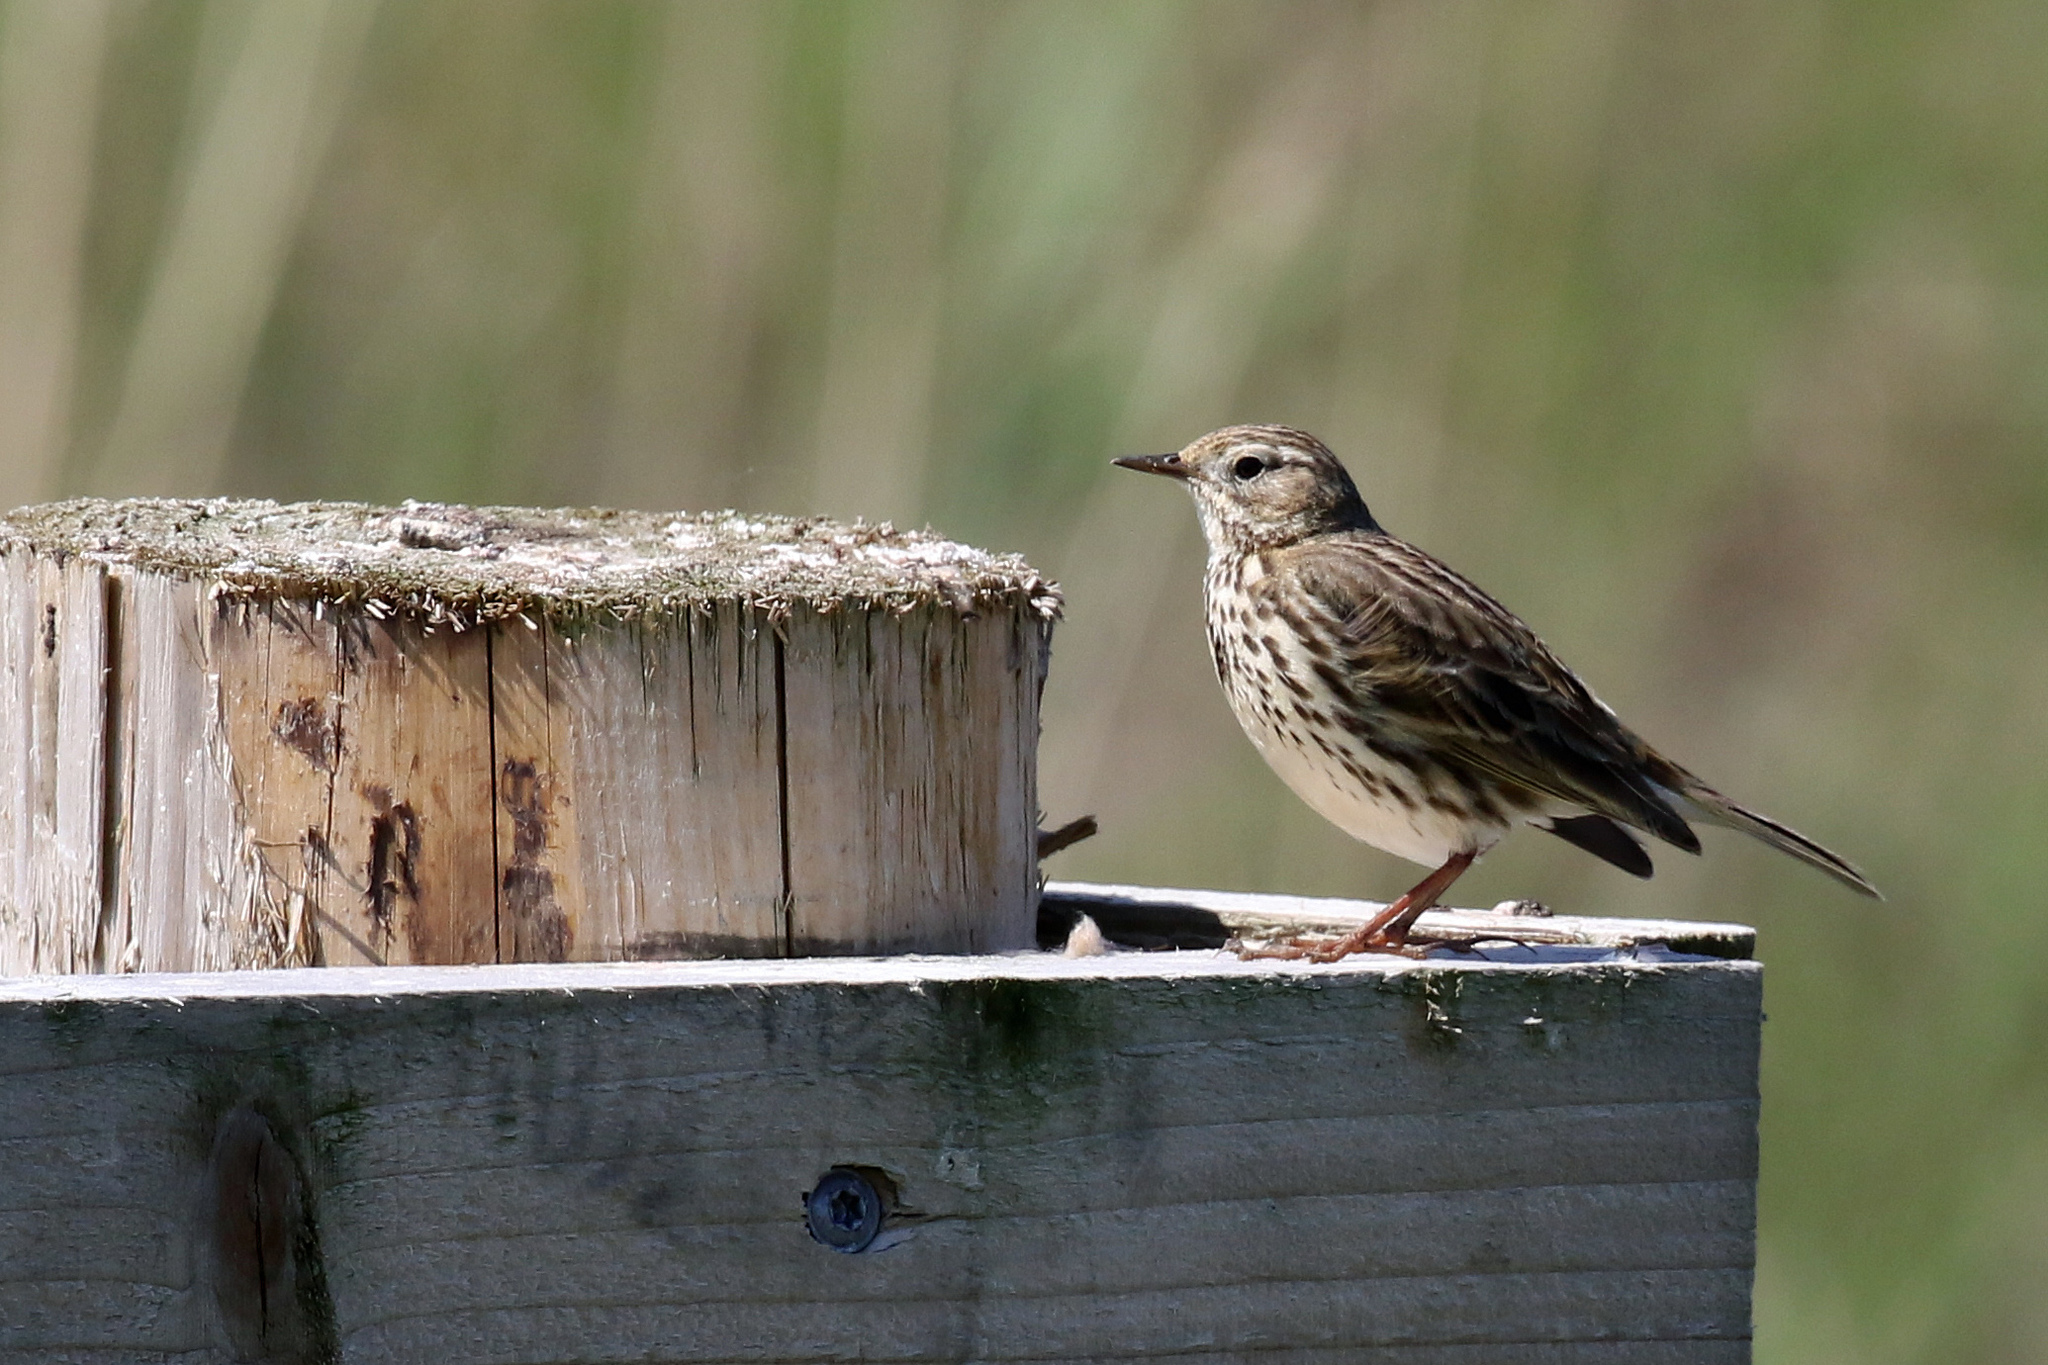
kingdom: Animalia
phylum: Chordata
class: Aves
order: Passeriformes
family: Motacillidae
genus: Anthus
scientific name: Anthus pratensis
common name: Meadow pipit
